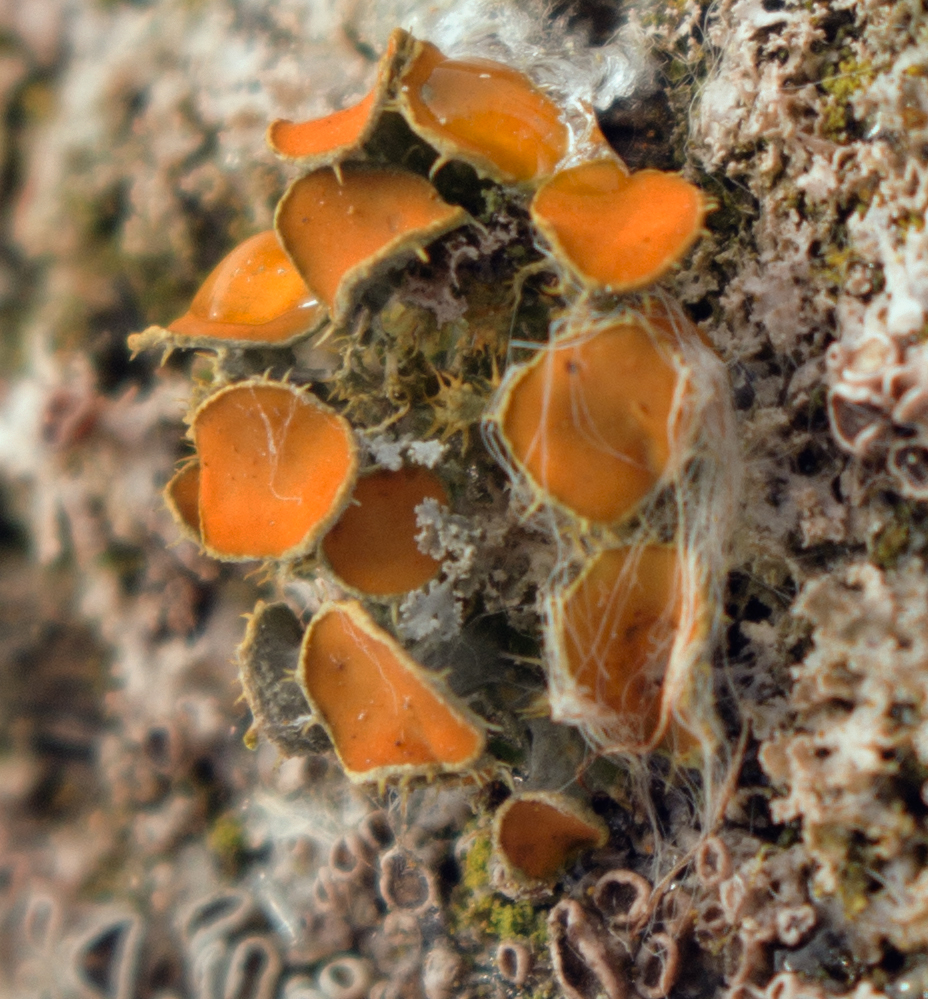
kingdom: Fungi
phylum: Ascomycota
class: Lecanoromycetes
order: Teloschistales
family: Teloschistaceae
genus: Niorma
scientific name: Niorma chrysophthalma
